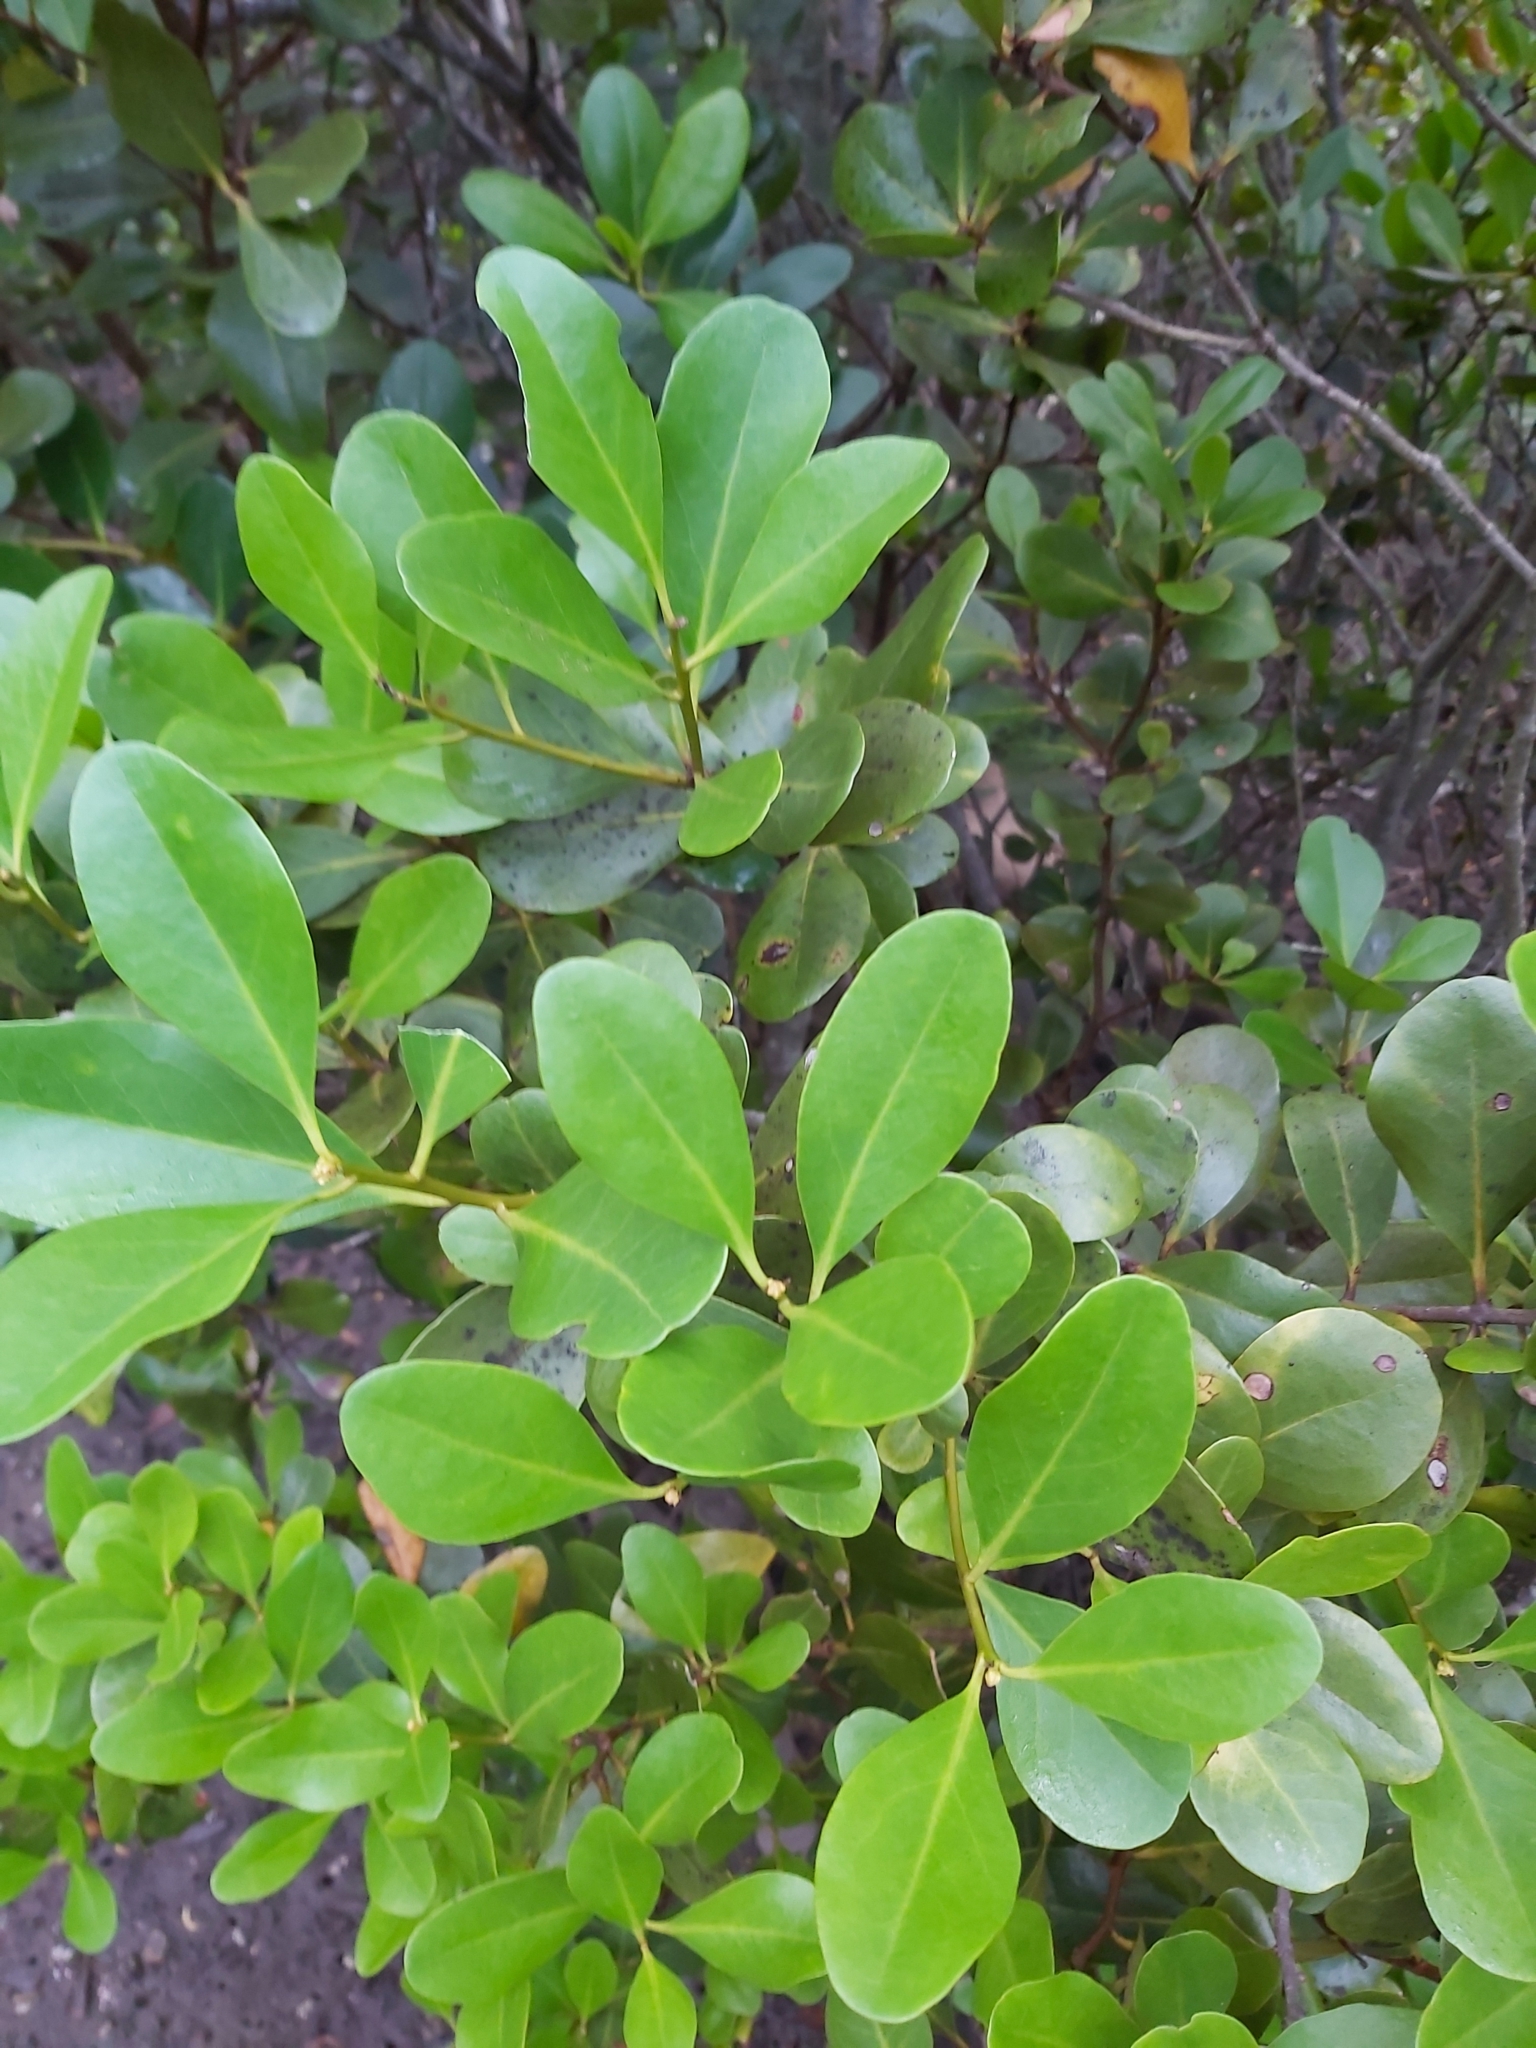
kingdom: Plantae
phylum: Tracheophyta
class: Magnoliopsida
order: Ericales
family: Primulaceae
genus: Aegiceras
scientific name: Aegiceras corniculatum
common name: River mangrove
